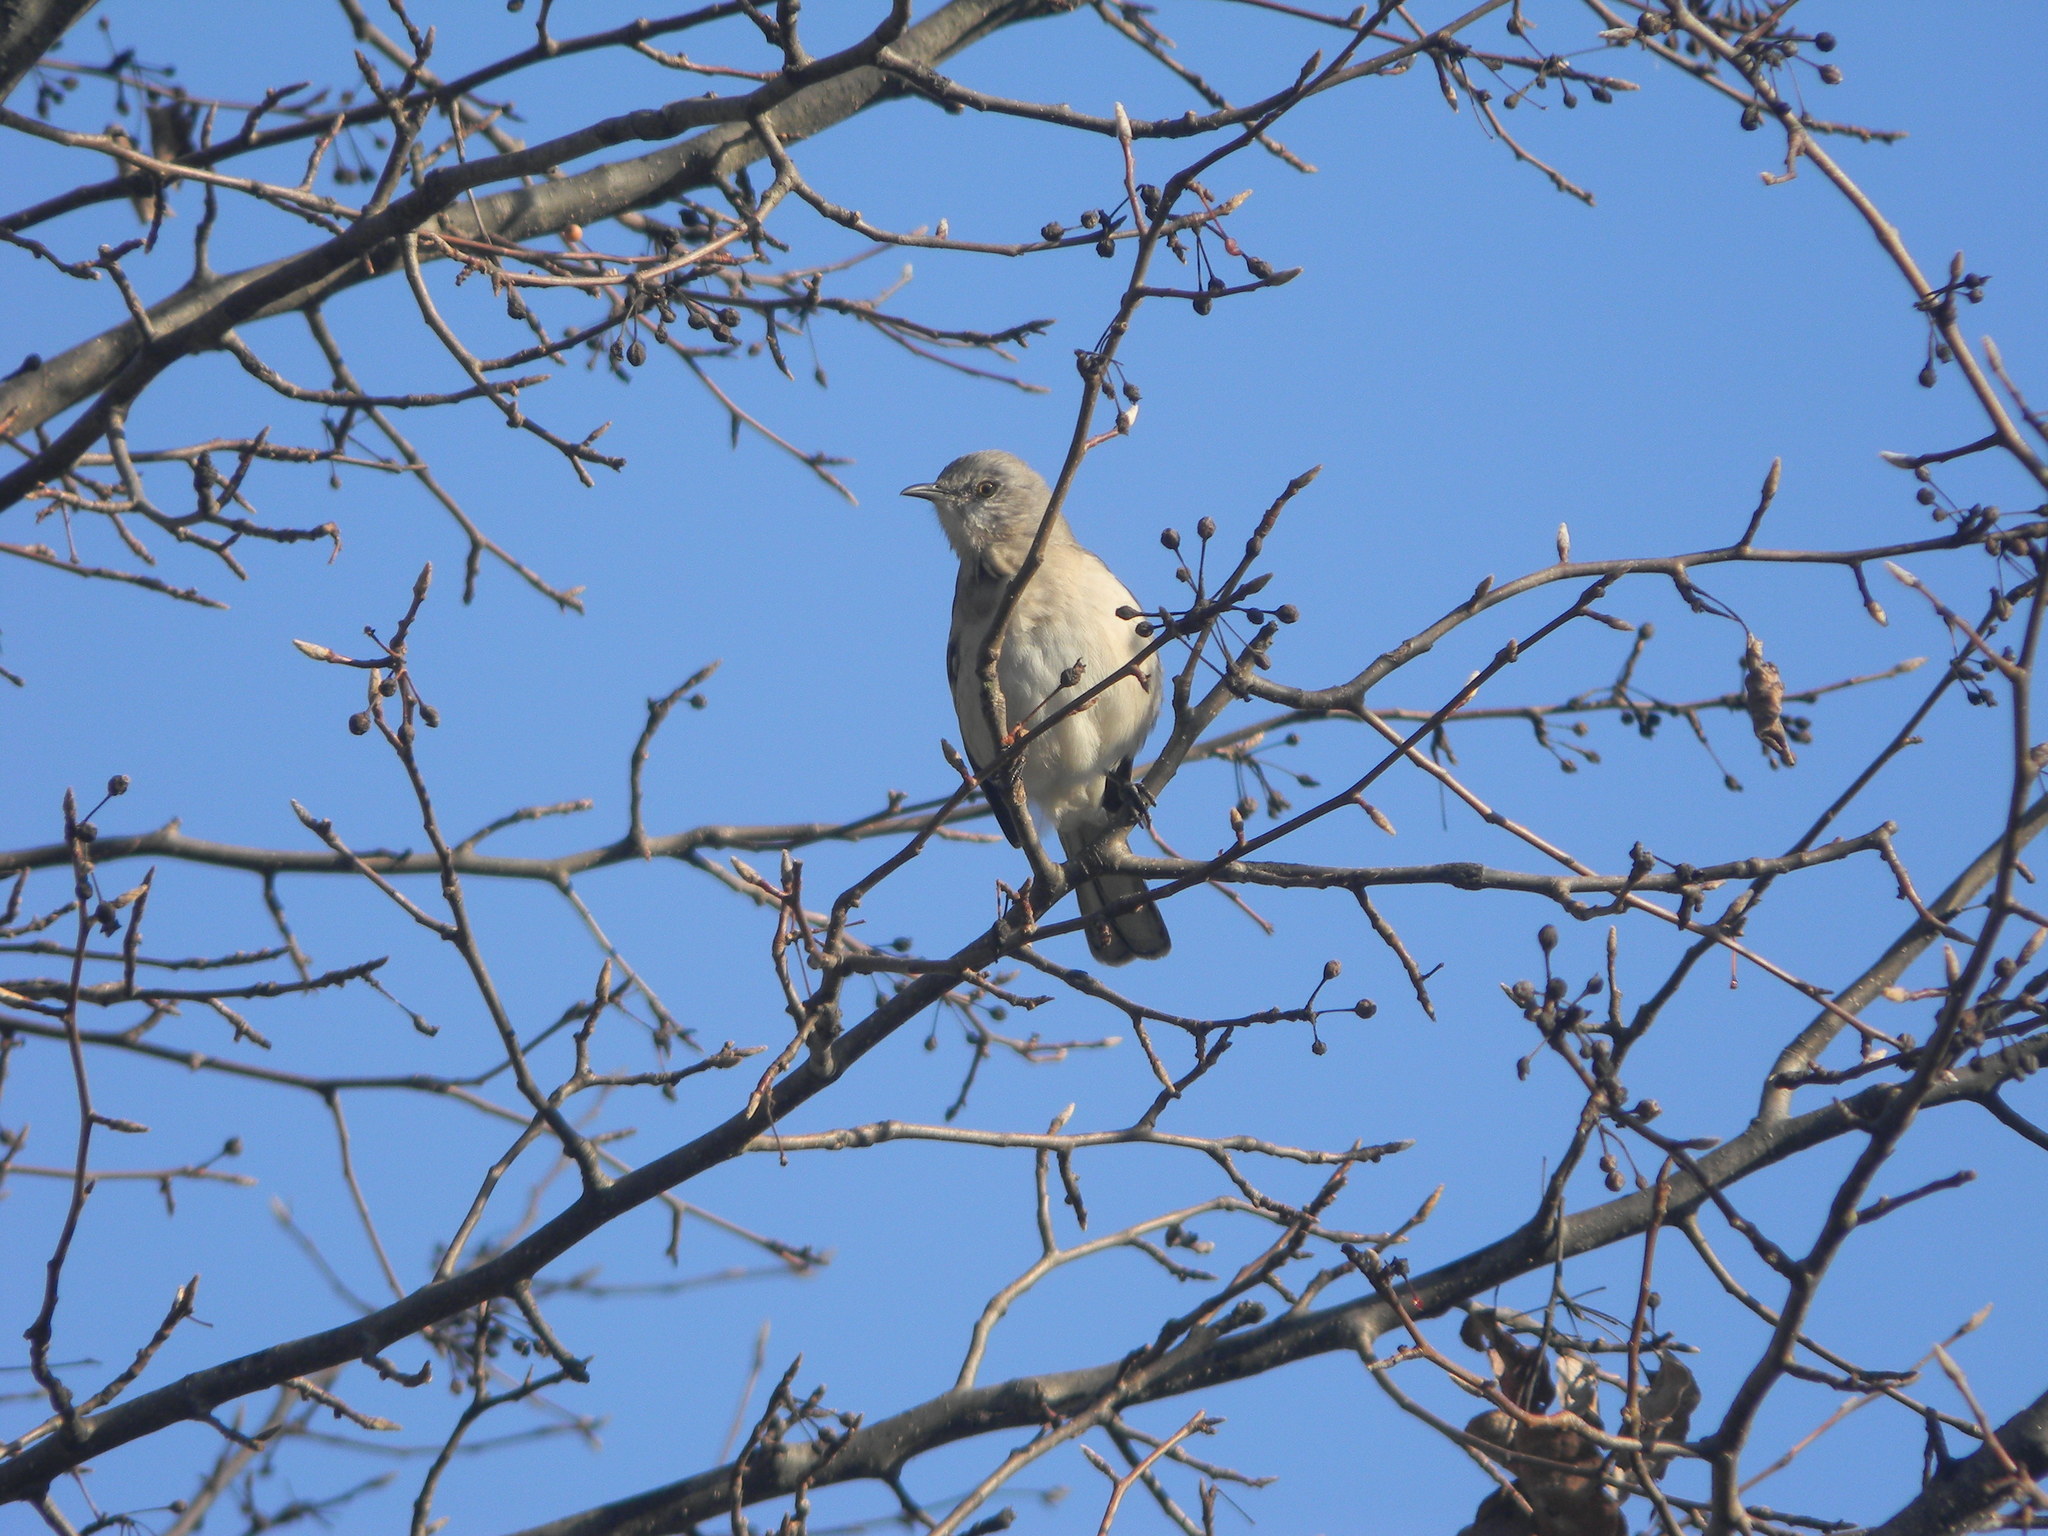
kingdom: Animalia
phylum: Chordata
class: Aves
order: Passeriformes
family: Mimidae
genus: Mimus
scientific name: Mimus polyglottos
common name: Northern mockingbird
